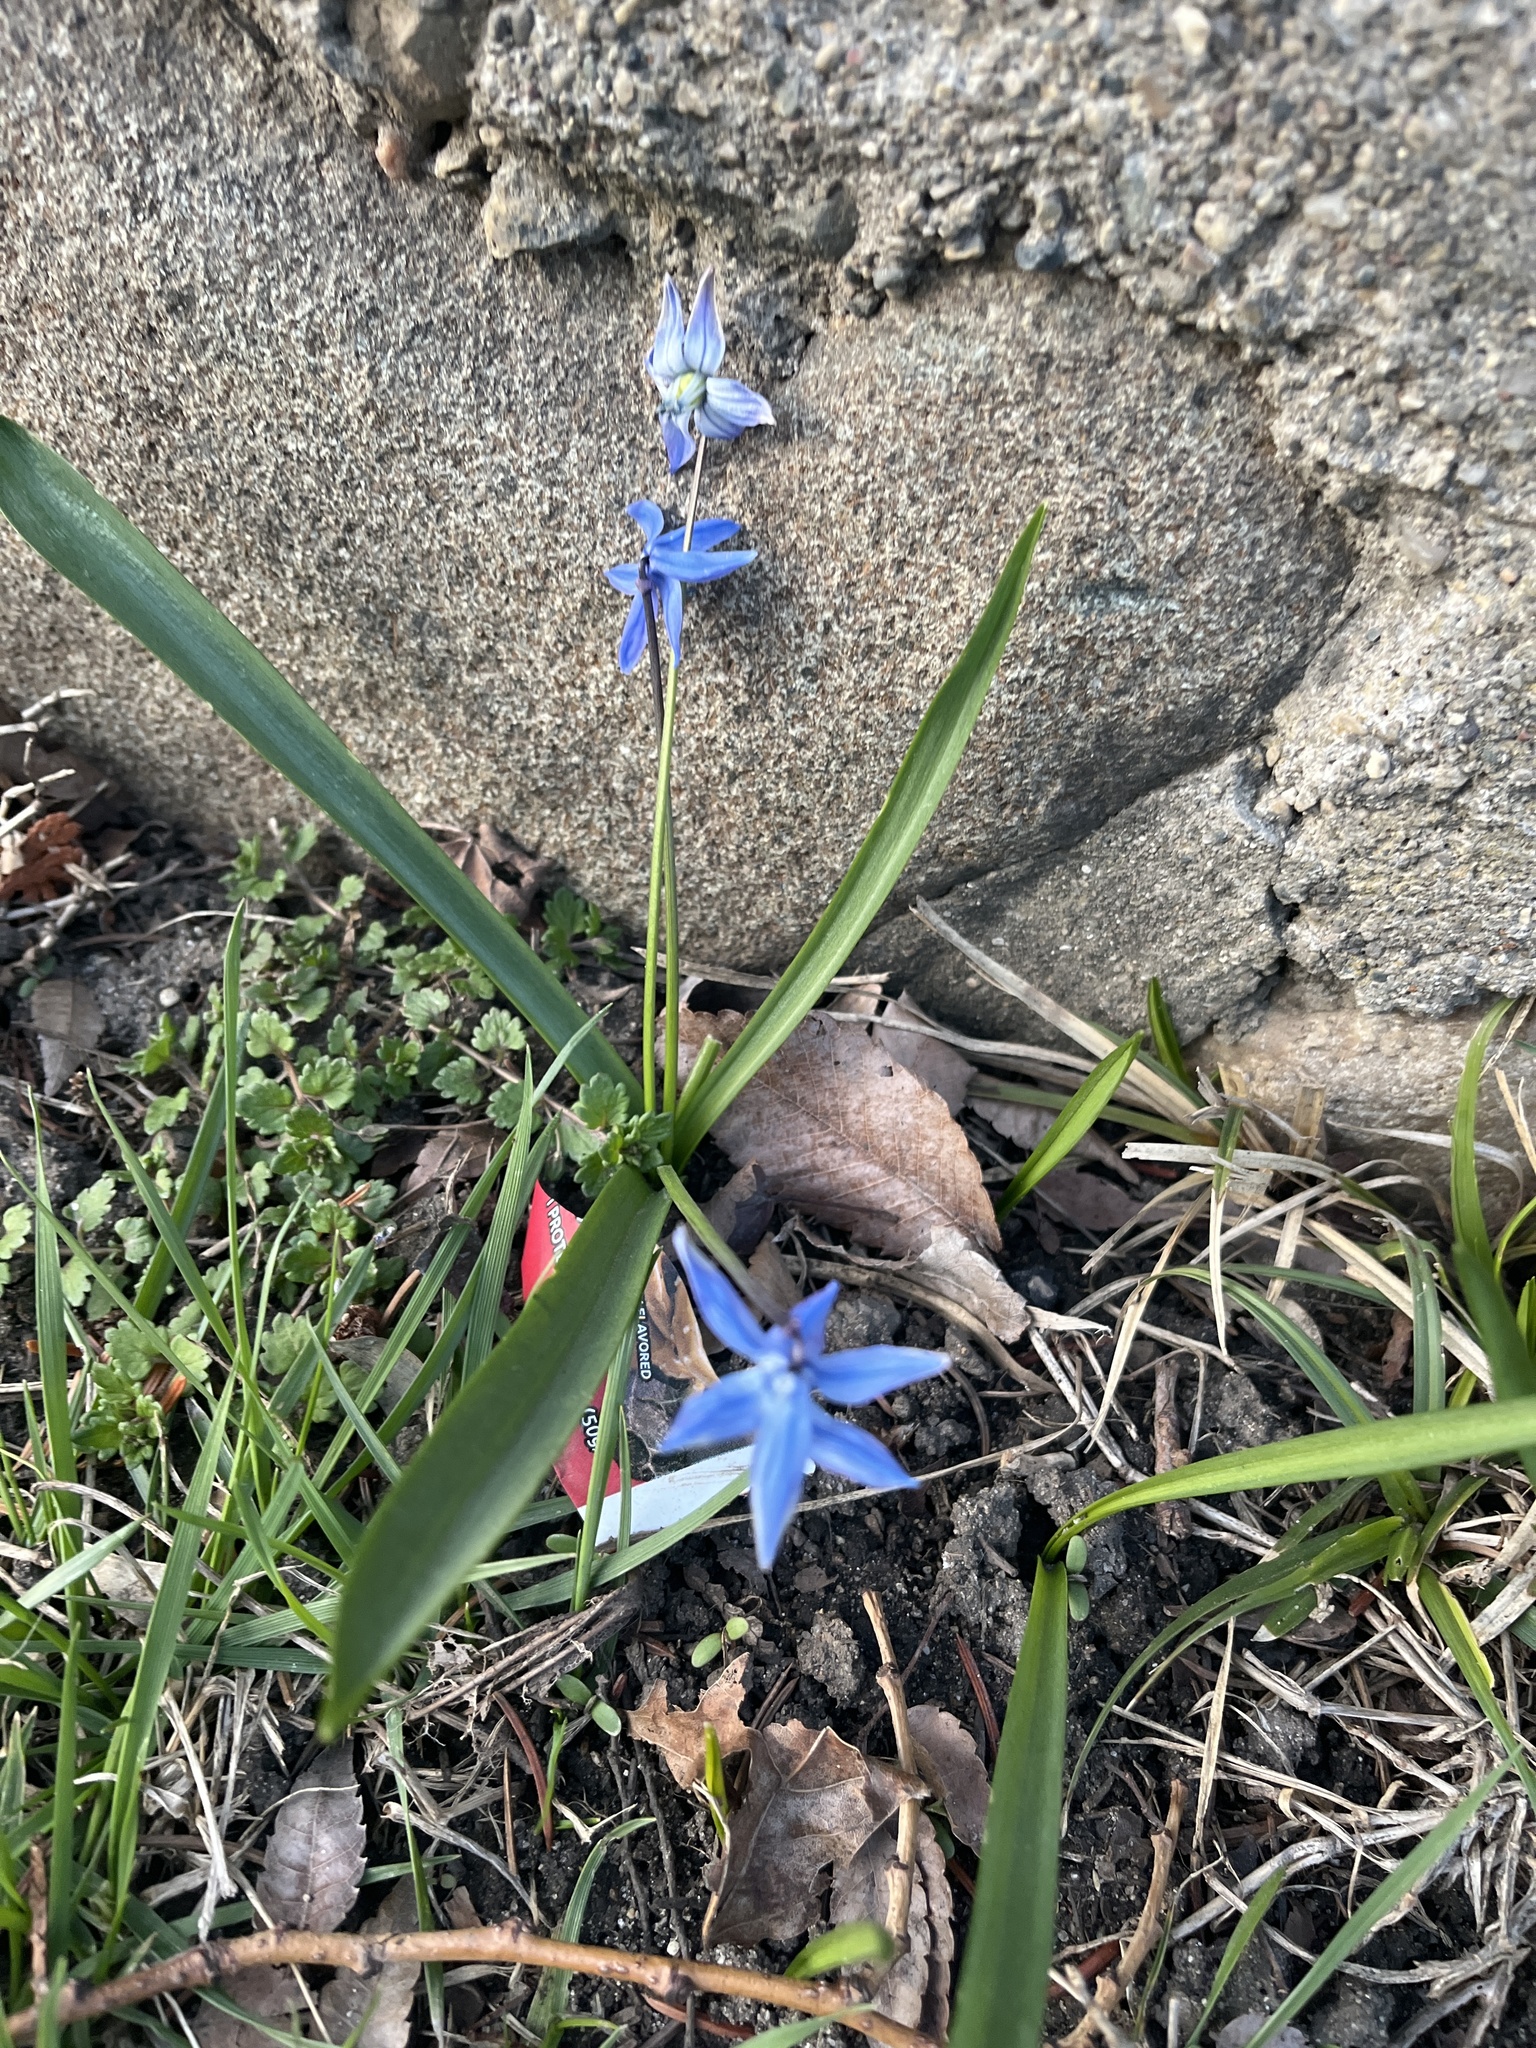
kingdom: Plantae
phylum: Tracheophyta
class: Liliopsida
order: Asparagales
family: Asparagaceae
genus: Scilla
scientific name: Scilla siberica
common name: Siberian squill
